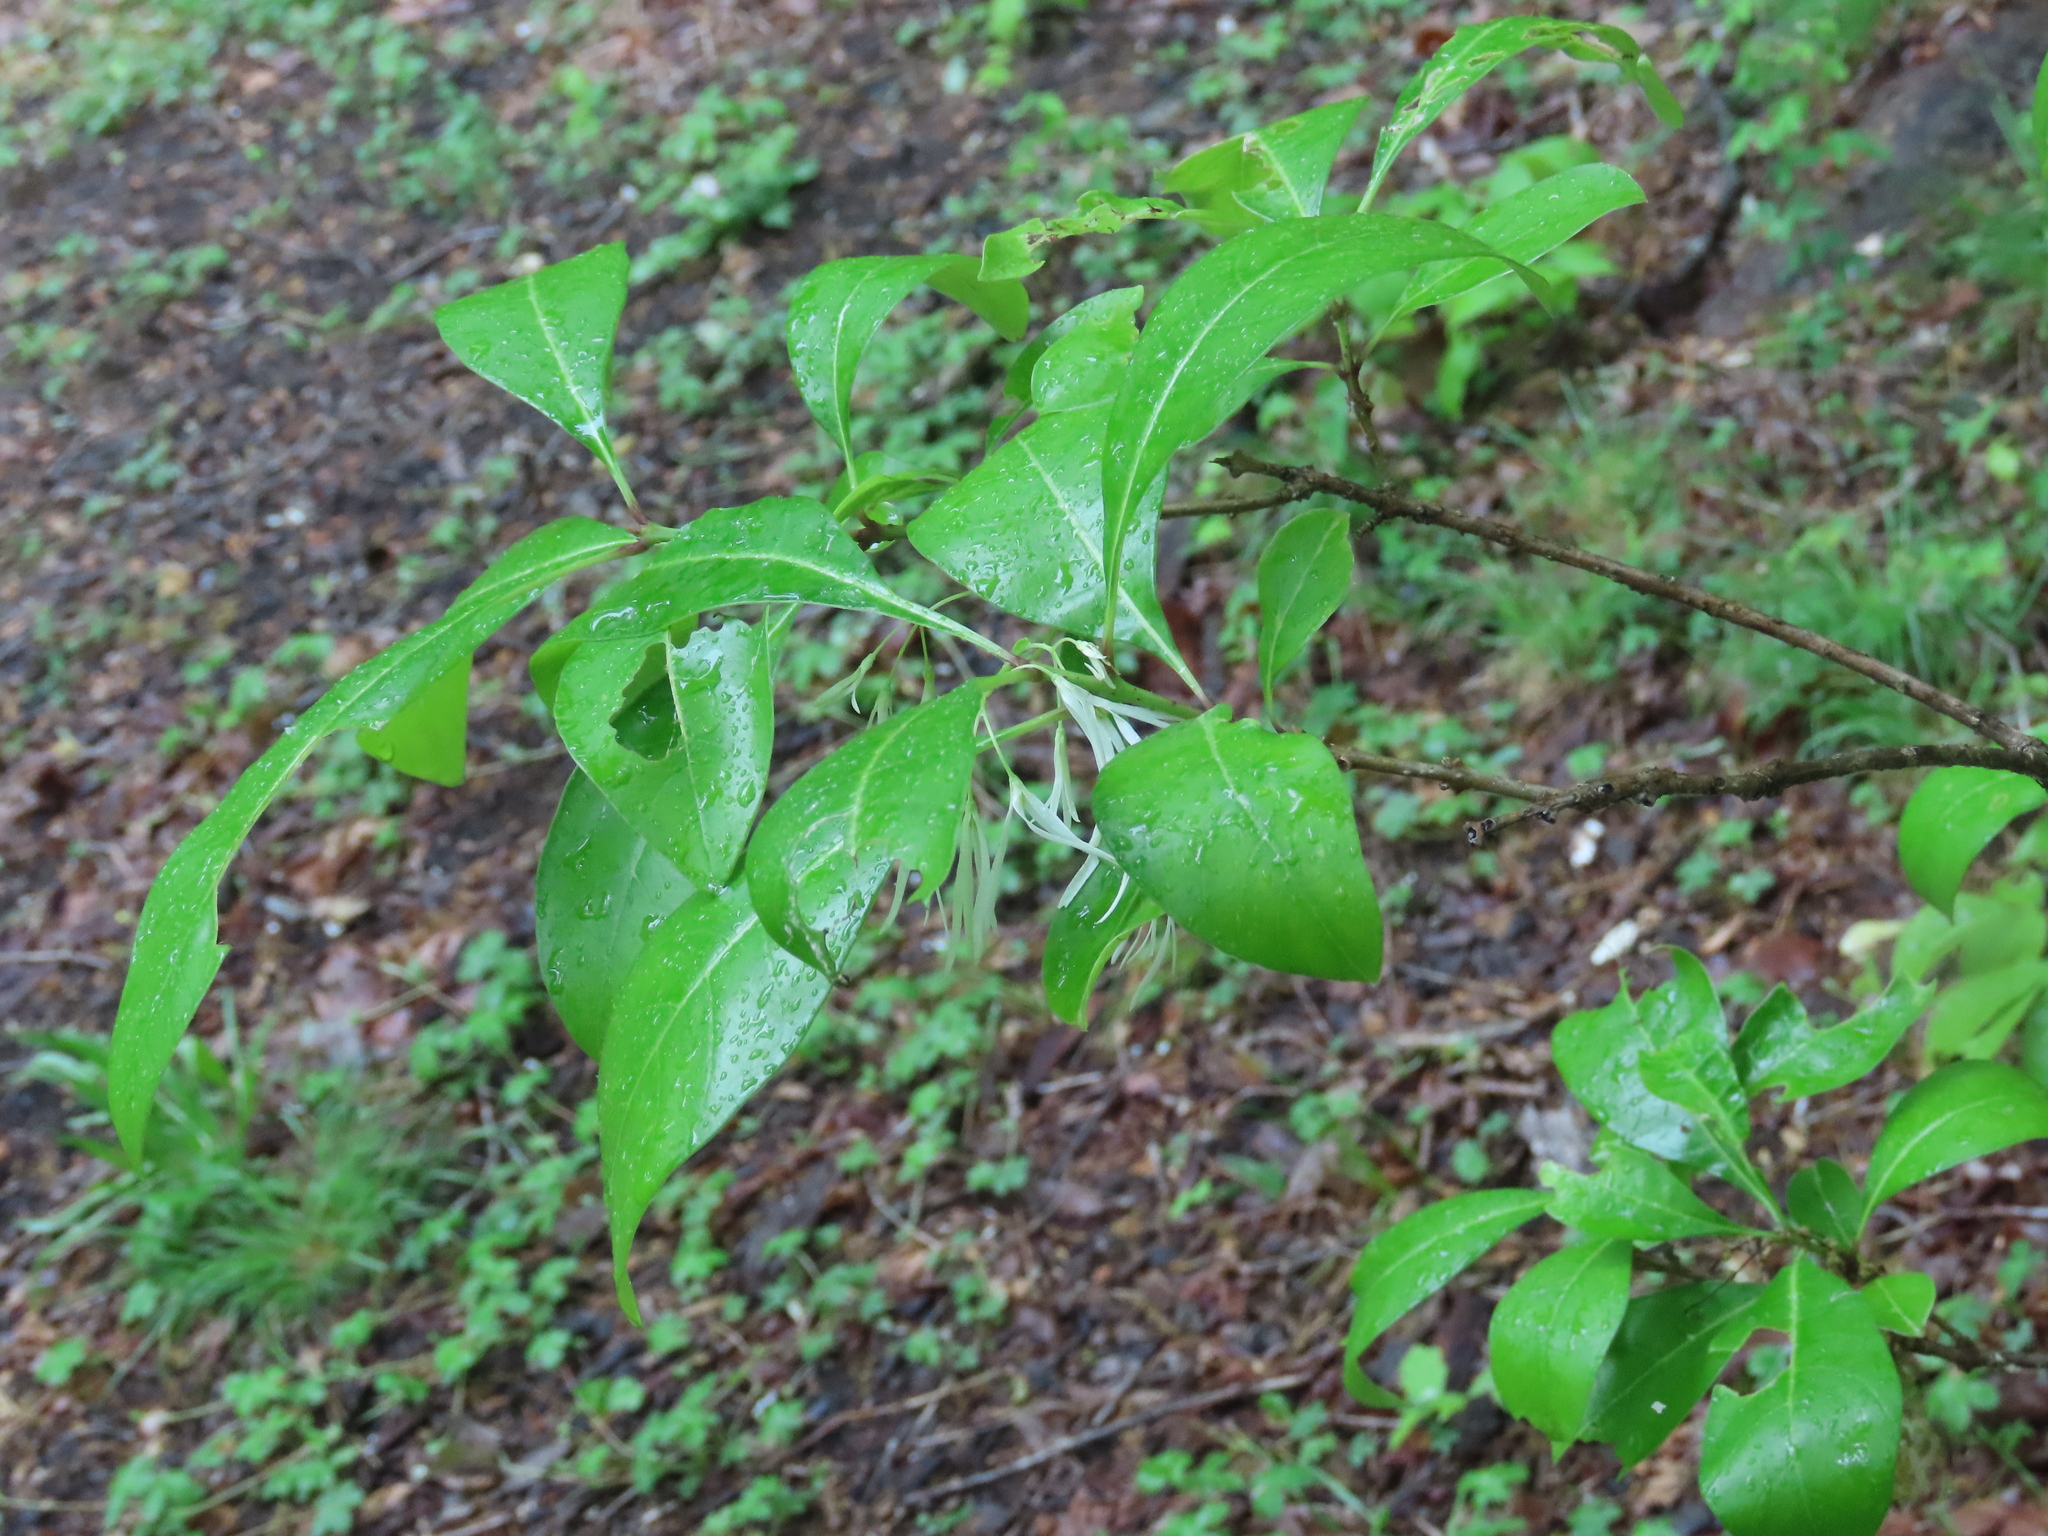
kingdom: Plantae
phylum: Tracheophyta
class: Magnoliopsida
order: Lamiales
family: Oleaceae
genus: Chionanthus
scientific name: Chionanthus virginicus
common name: American fringetree
